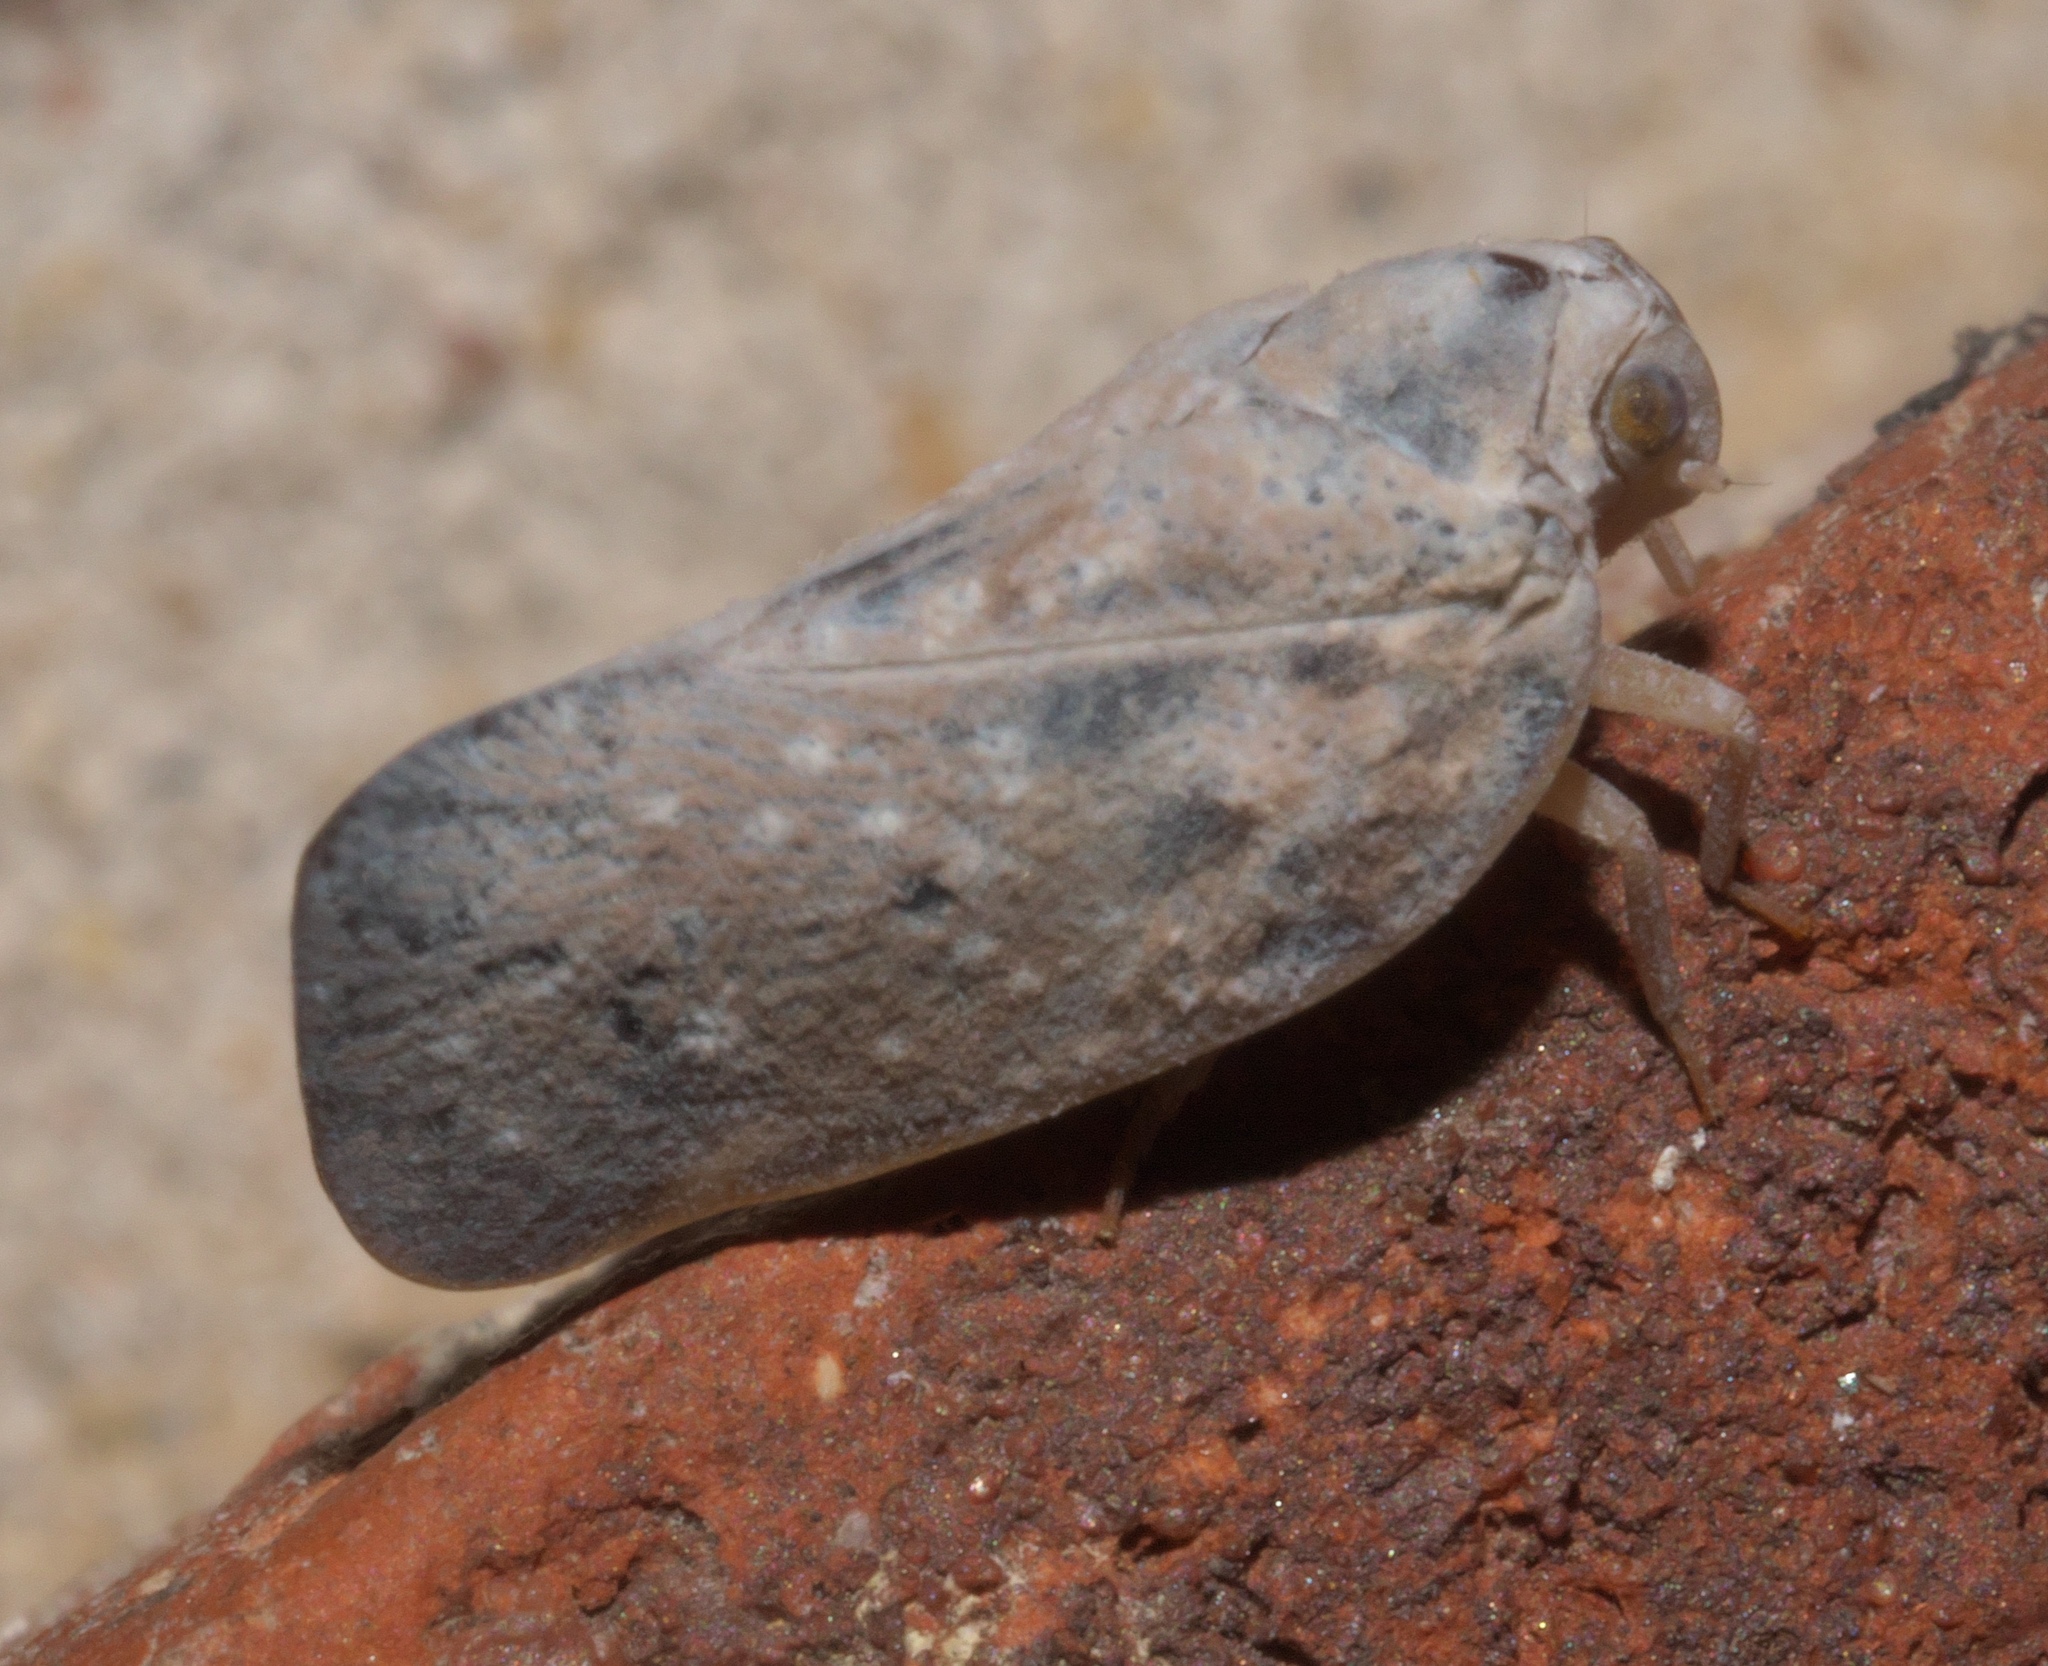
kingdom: Animalia
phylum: Arthropoda
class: Insecta
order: Hemiptera
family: Flatidae
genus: Metcalfa
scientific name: Metcalfa pruinosa
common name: Citrus flatid planthopper
